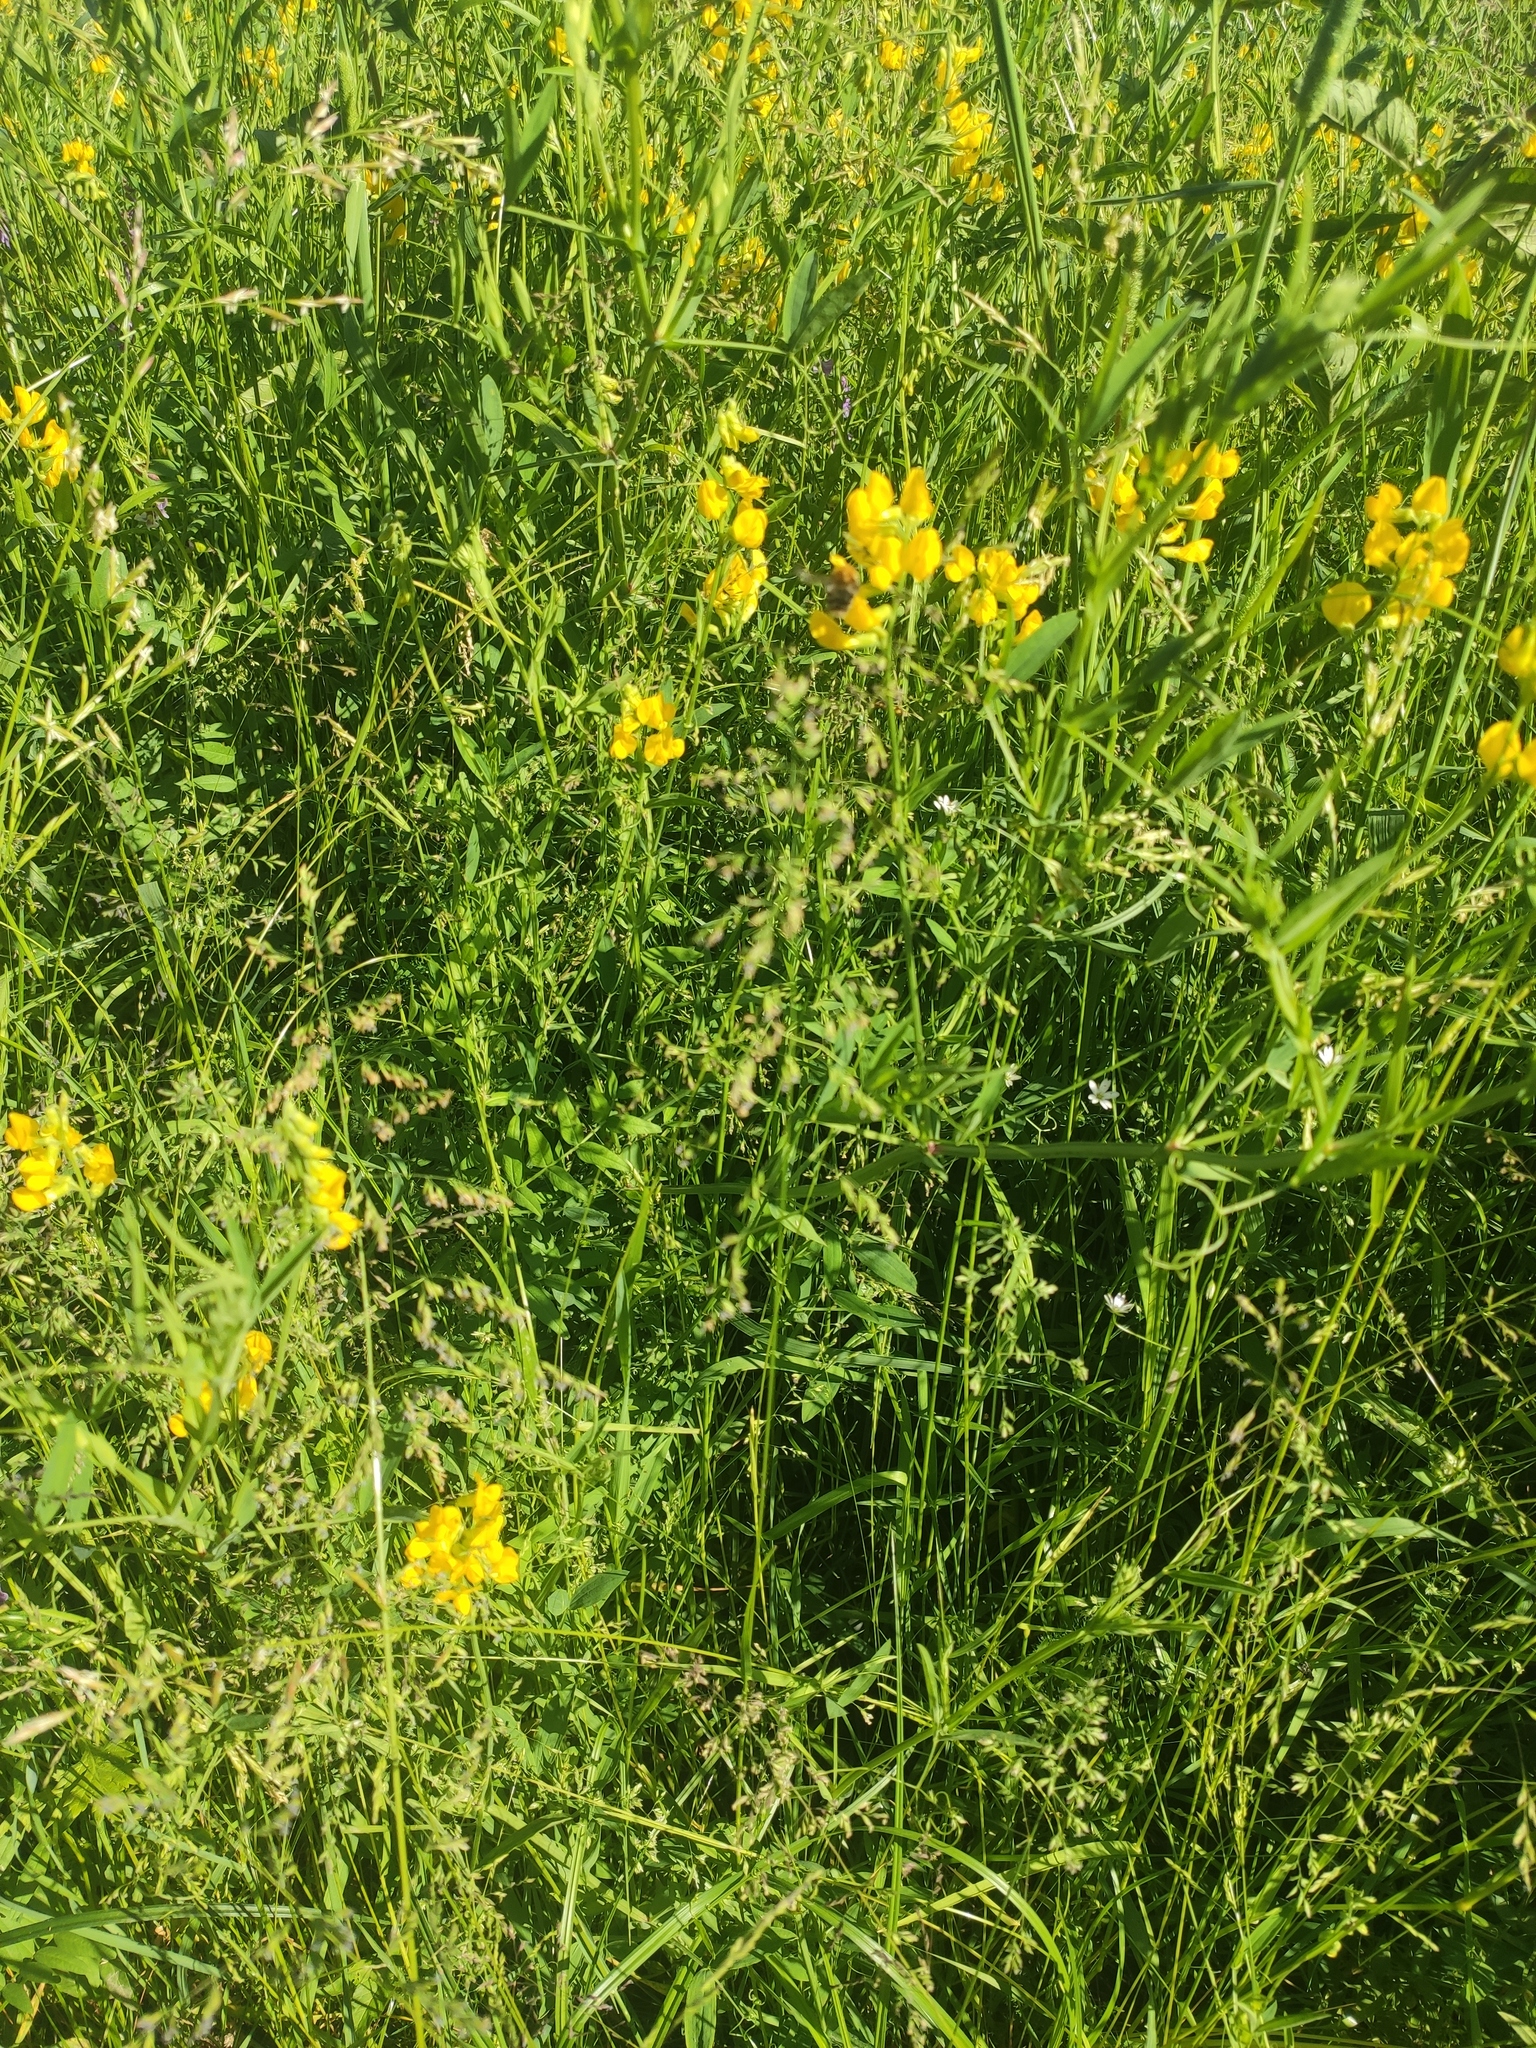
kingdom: Plantae
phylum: Tracheophyta
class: Magnoliopsida
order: Fabales
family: Fabaceae
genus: Lathyrus
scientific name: Lathyrus pratensis
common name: Meadow vetchling
